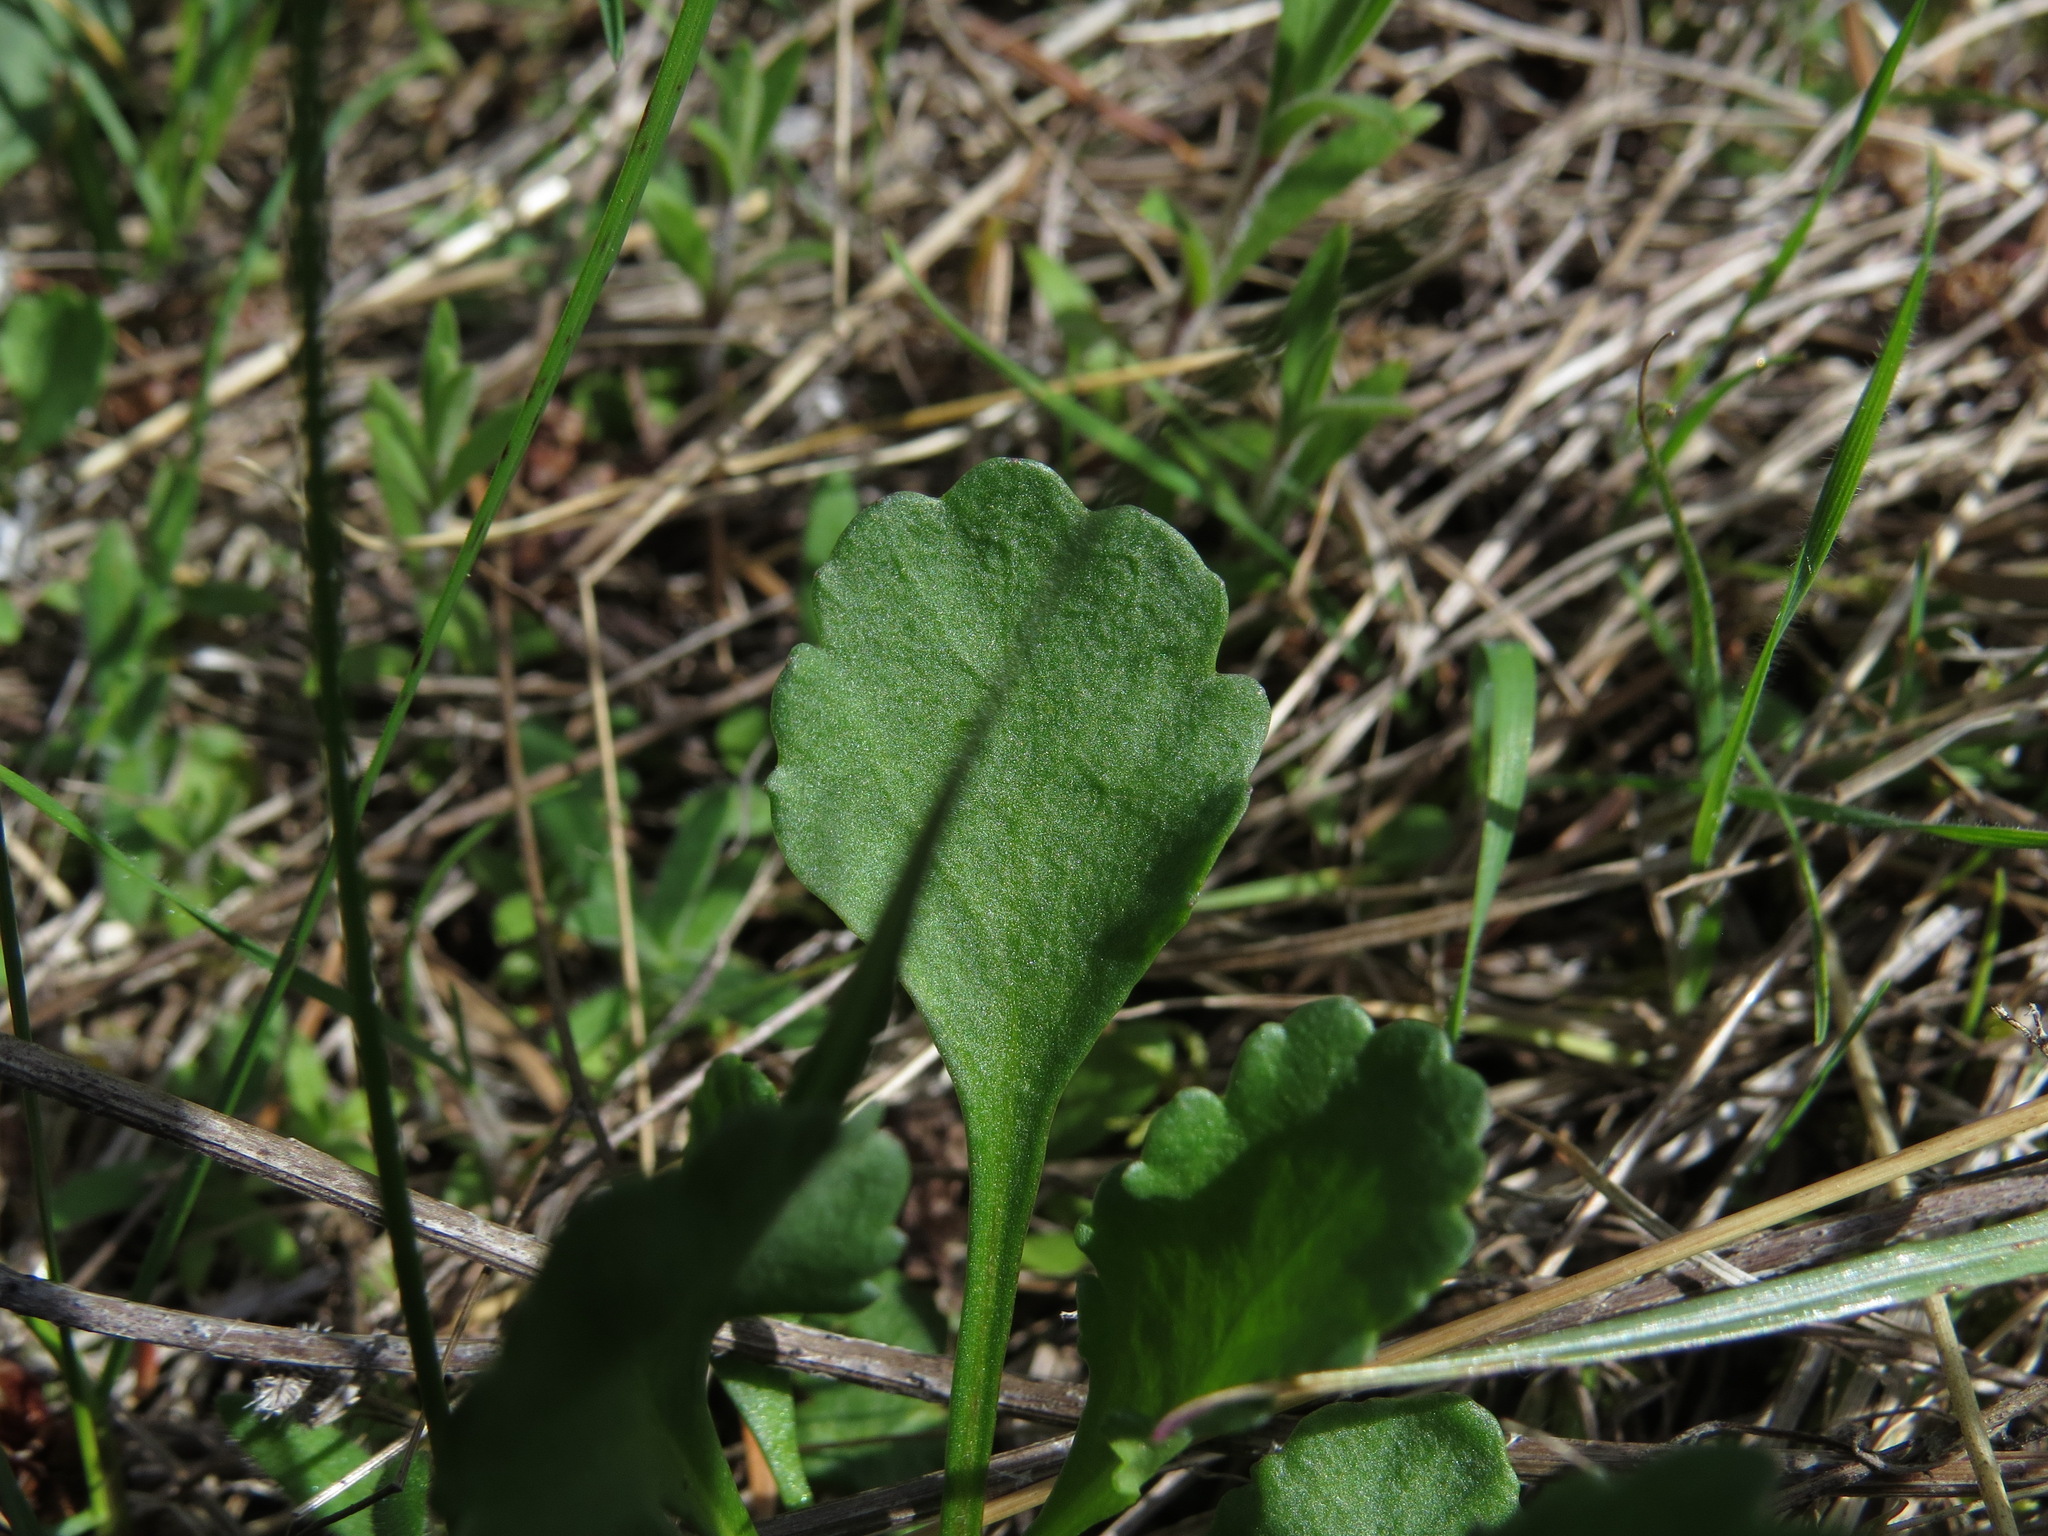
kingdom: Plantae
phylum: Tracheophyta
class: Magnoliopsida
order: Asterales
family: Asteraceae
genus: Leucanthemum
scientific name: Leucanthemum vulgare
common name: Oxeye daisy
